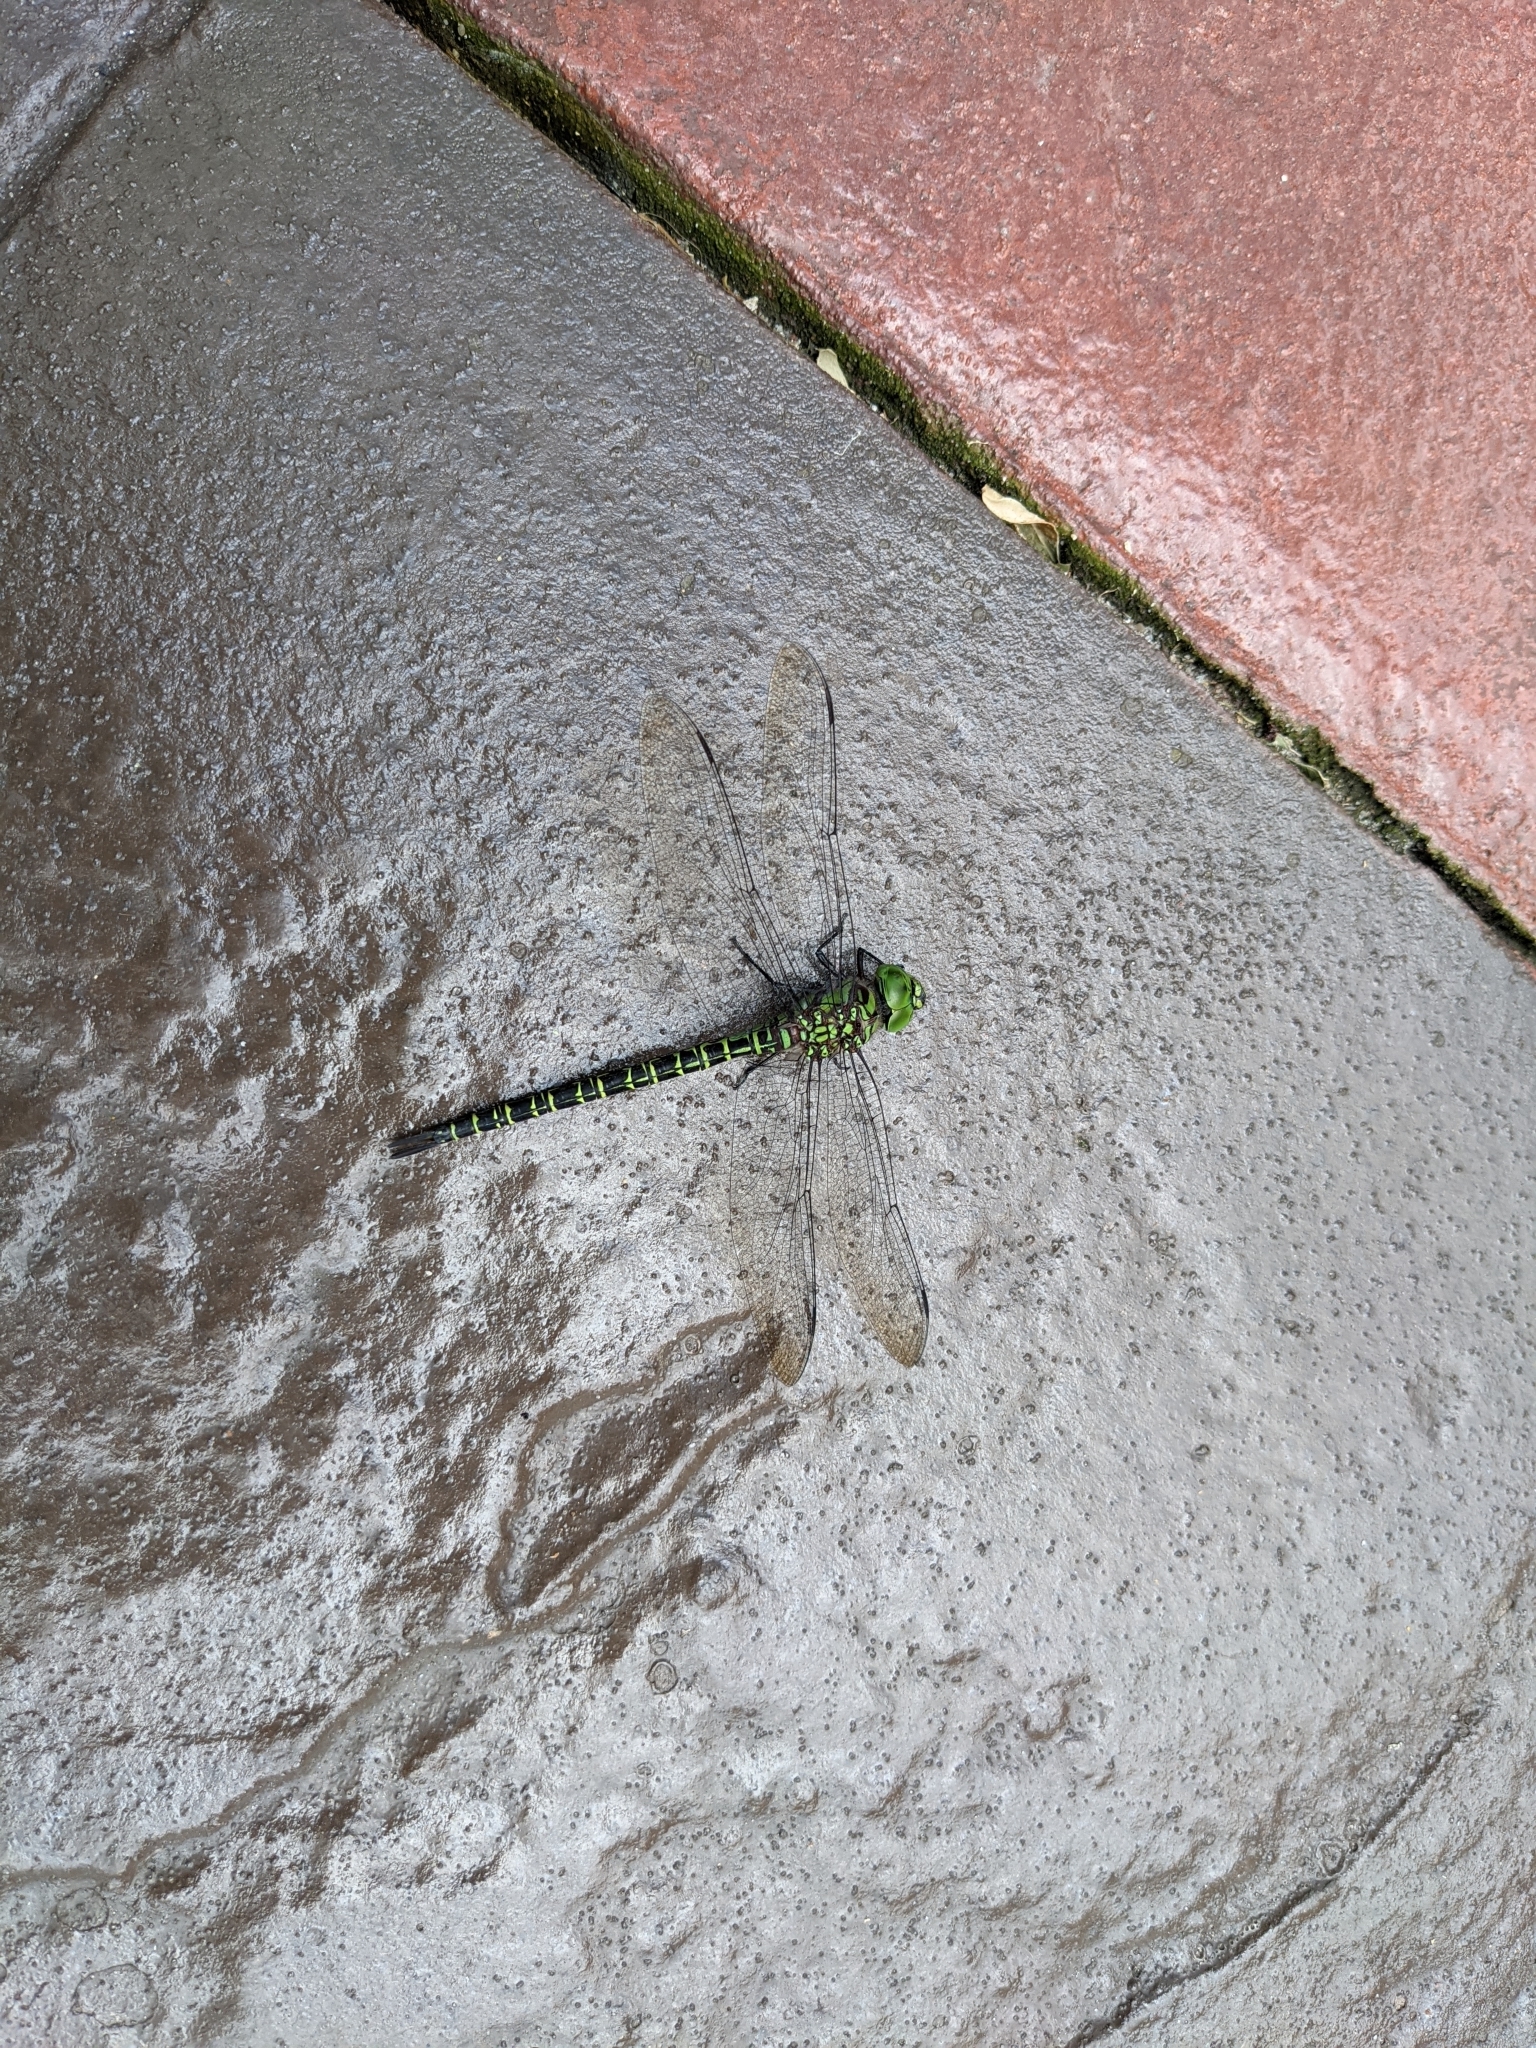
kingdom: Animalia
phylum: Arthropoda
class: Insecta
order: Odonata
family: Aeshnidae
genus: Coryphaeschna
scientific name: Coryphaeschna ingens
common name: Regal darner
